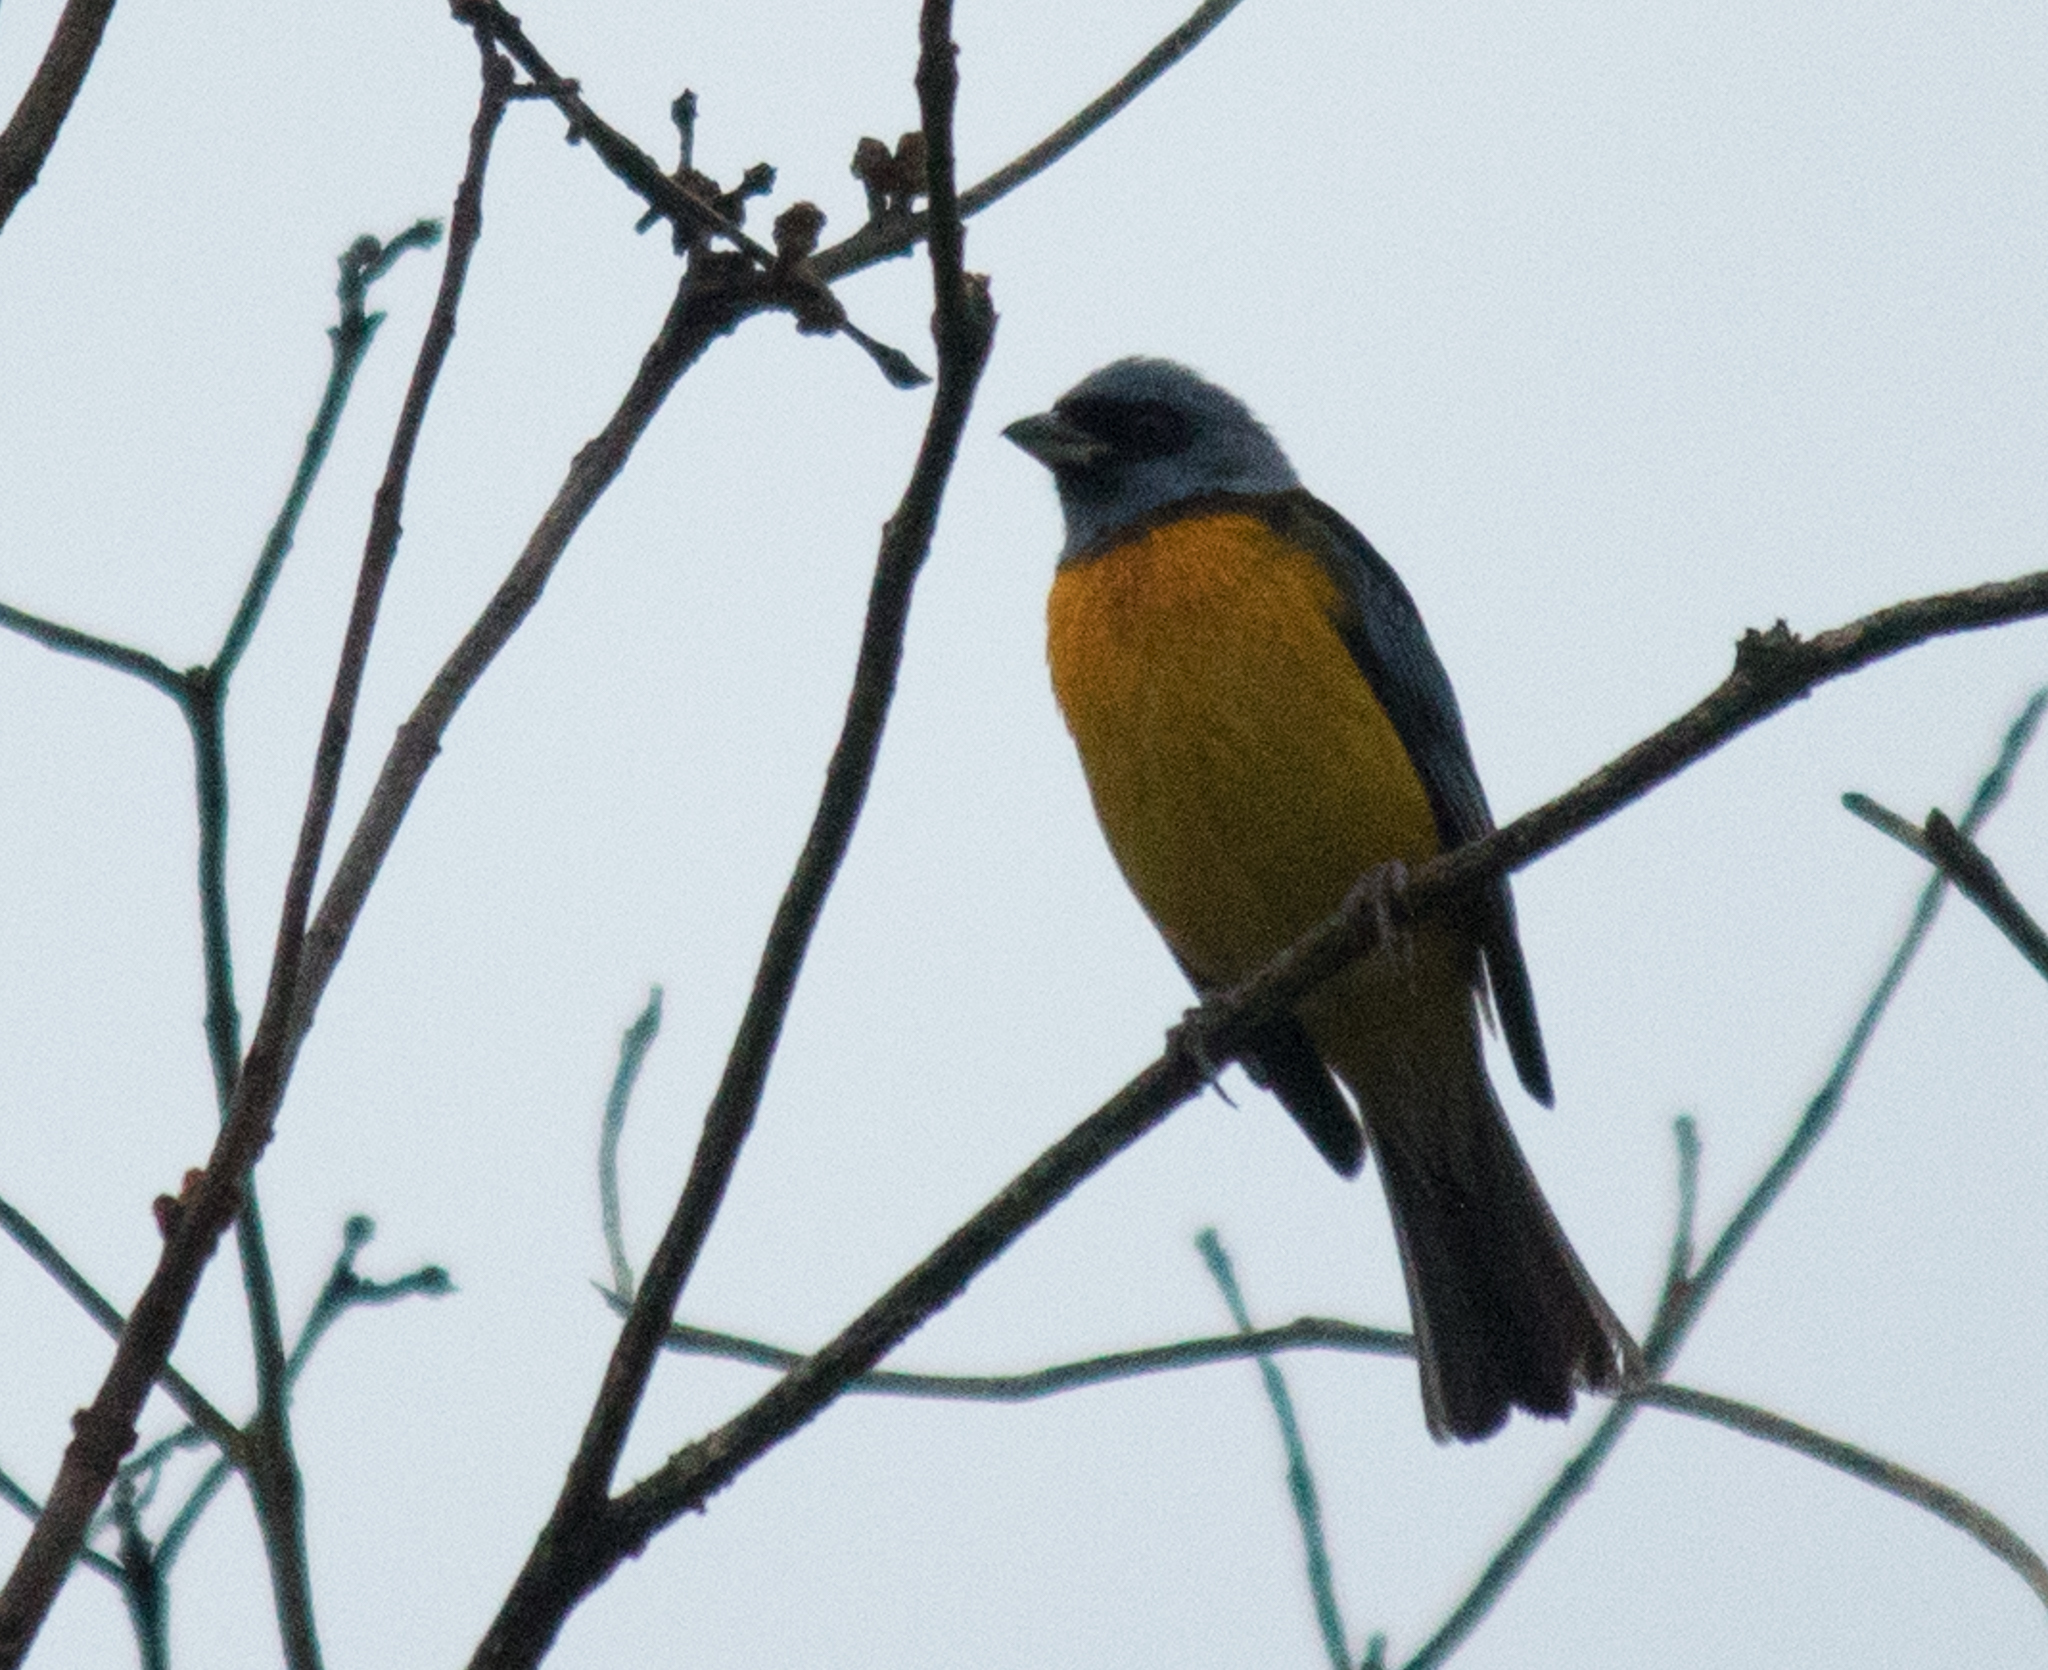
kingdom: Animalia
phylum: Chordata
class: Aves
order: Passeriformes
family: Thraupidae
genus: Rauenia
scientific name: Rauenia bonariensis
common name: Blue-and-yellow tanager
